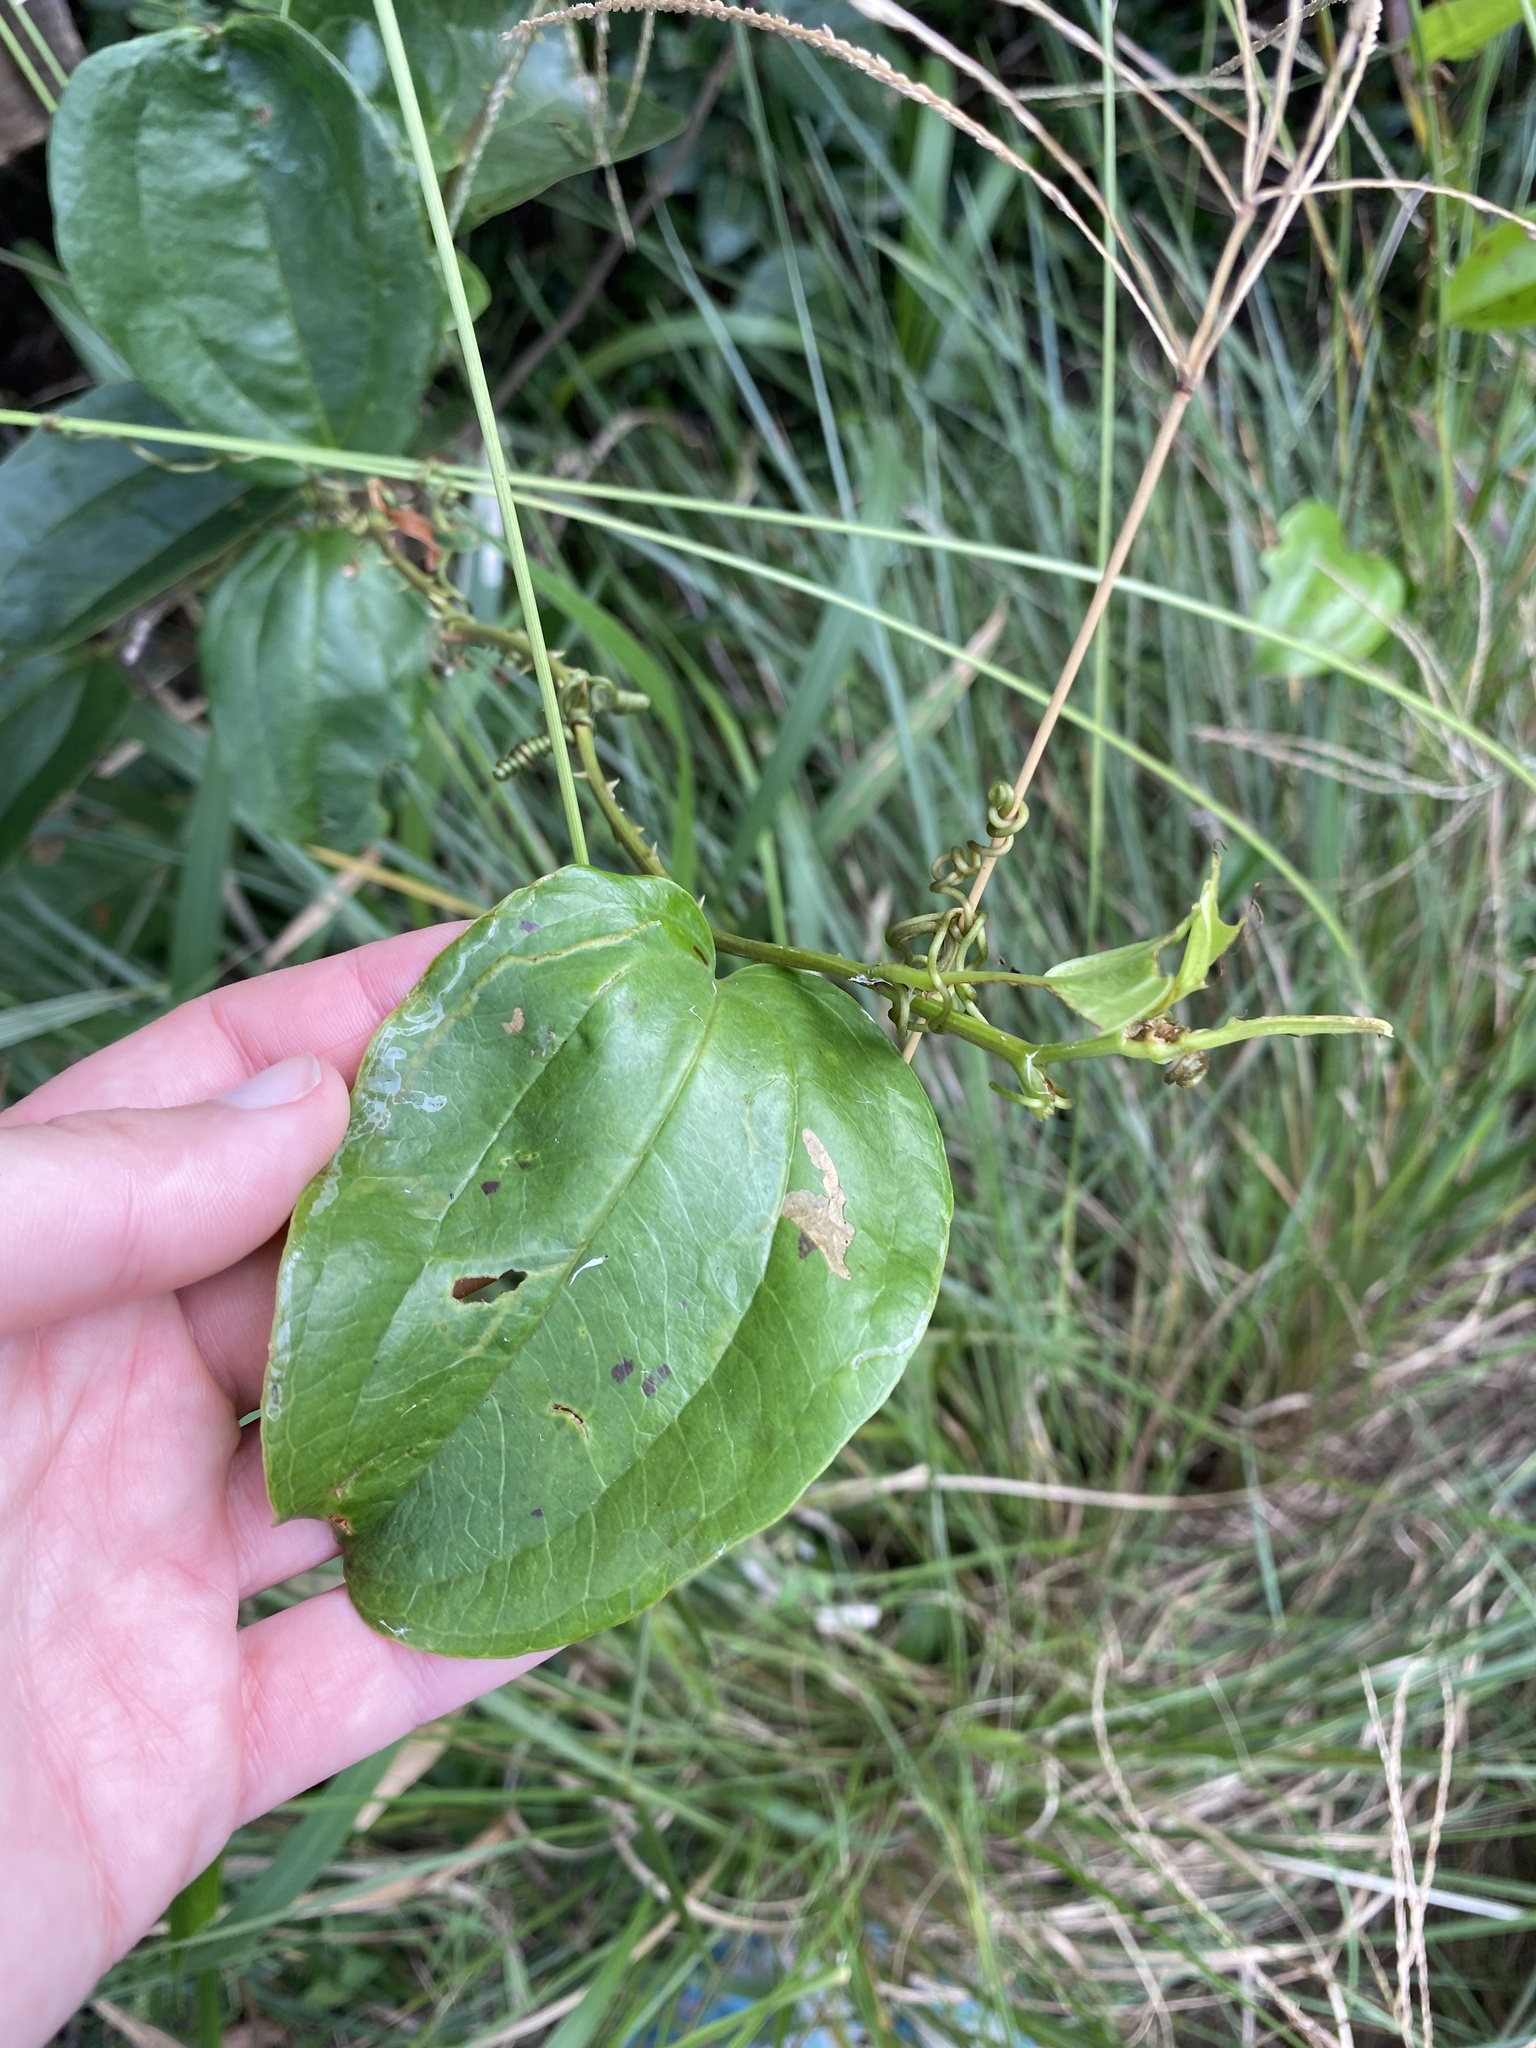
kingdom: Plantae
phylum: Tracheophyta
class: Liliopsida
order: Liliales
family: Smilacaceae
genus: Smilax
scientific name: Smilax anceps
